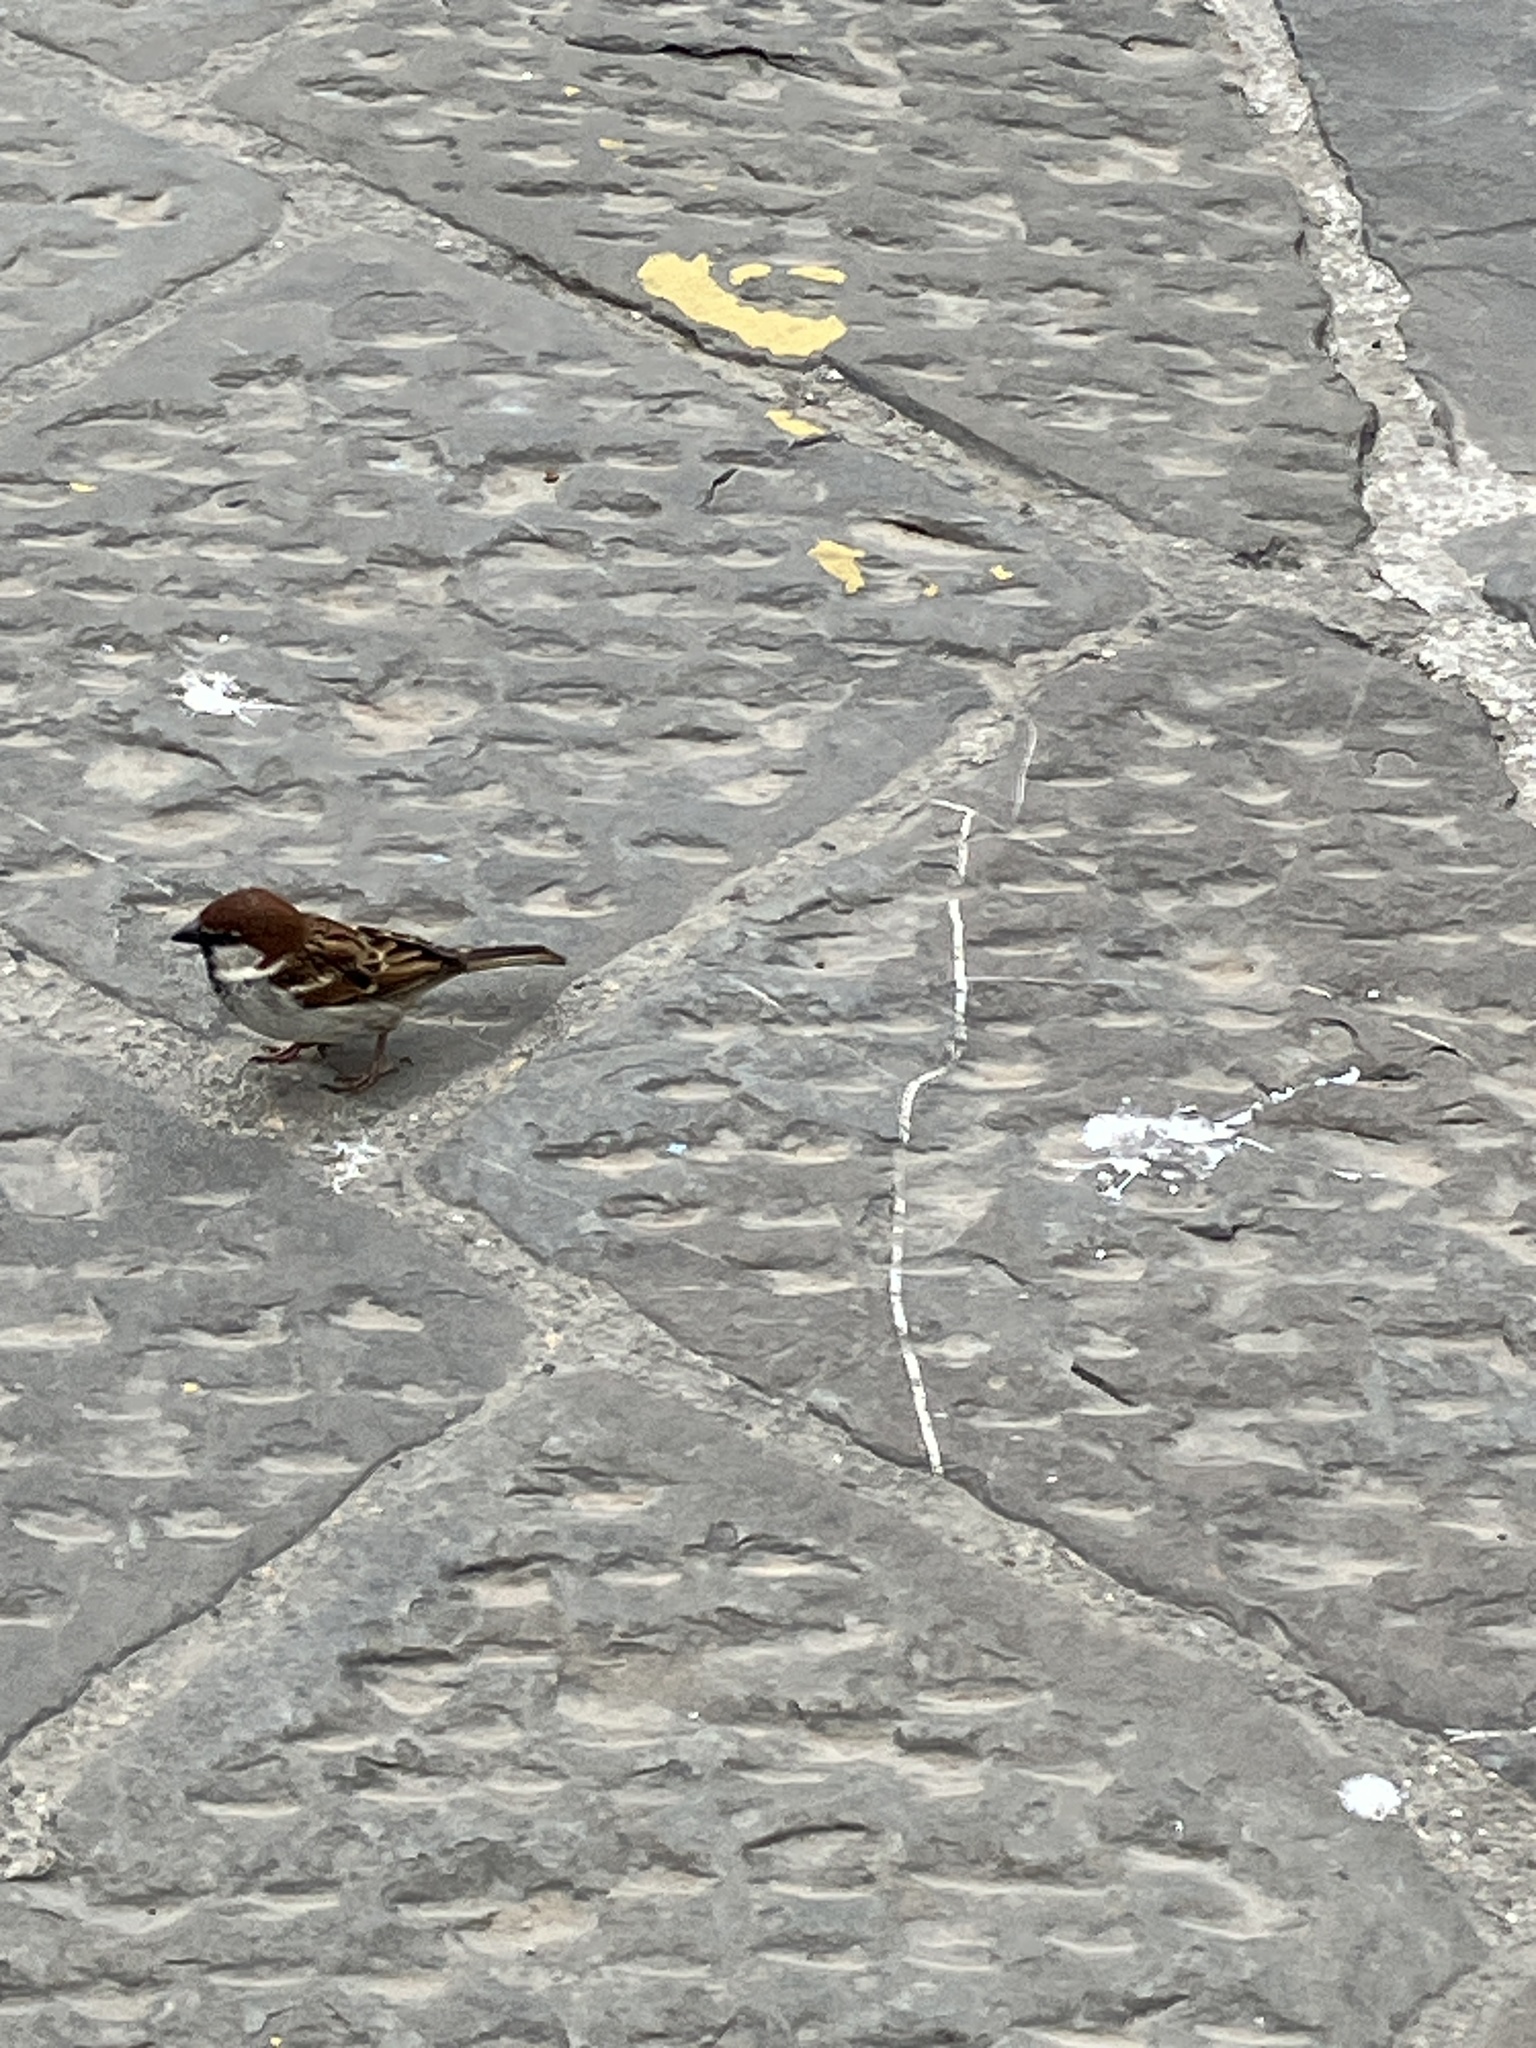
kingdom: Animalia
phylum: Chordata
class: Aves
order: Passeriformes
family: Passeridae
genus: Passer
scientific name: Passer italiae
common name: Italian sparrow
